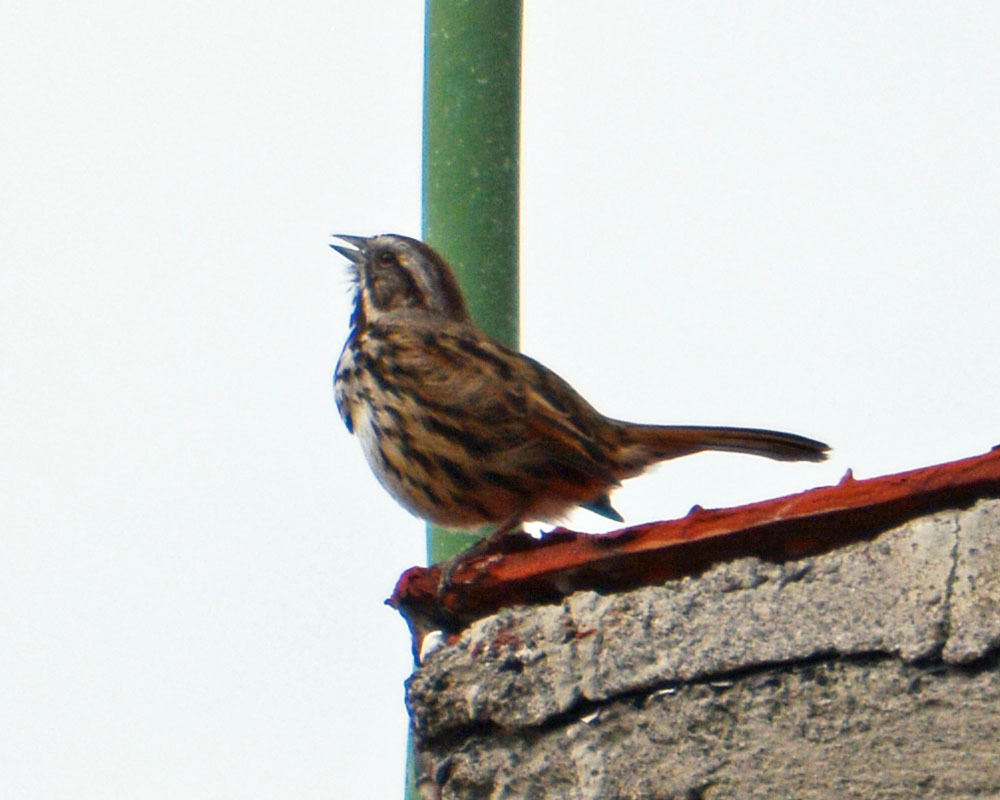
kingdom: Animalia
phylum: Chordata
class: Aves
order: Passeriformes
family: Passerellidae
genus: Melospiza
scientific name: Melospiza melodia
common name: Song sparrow
